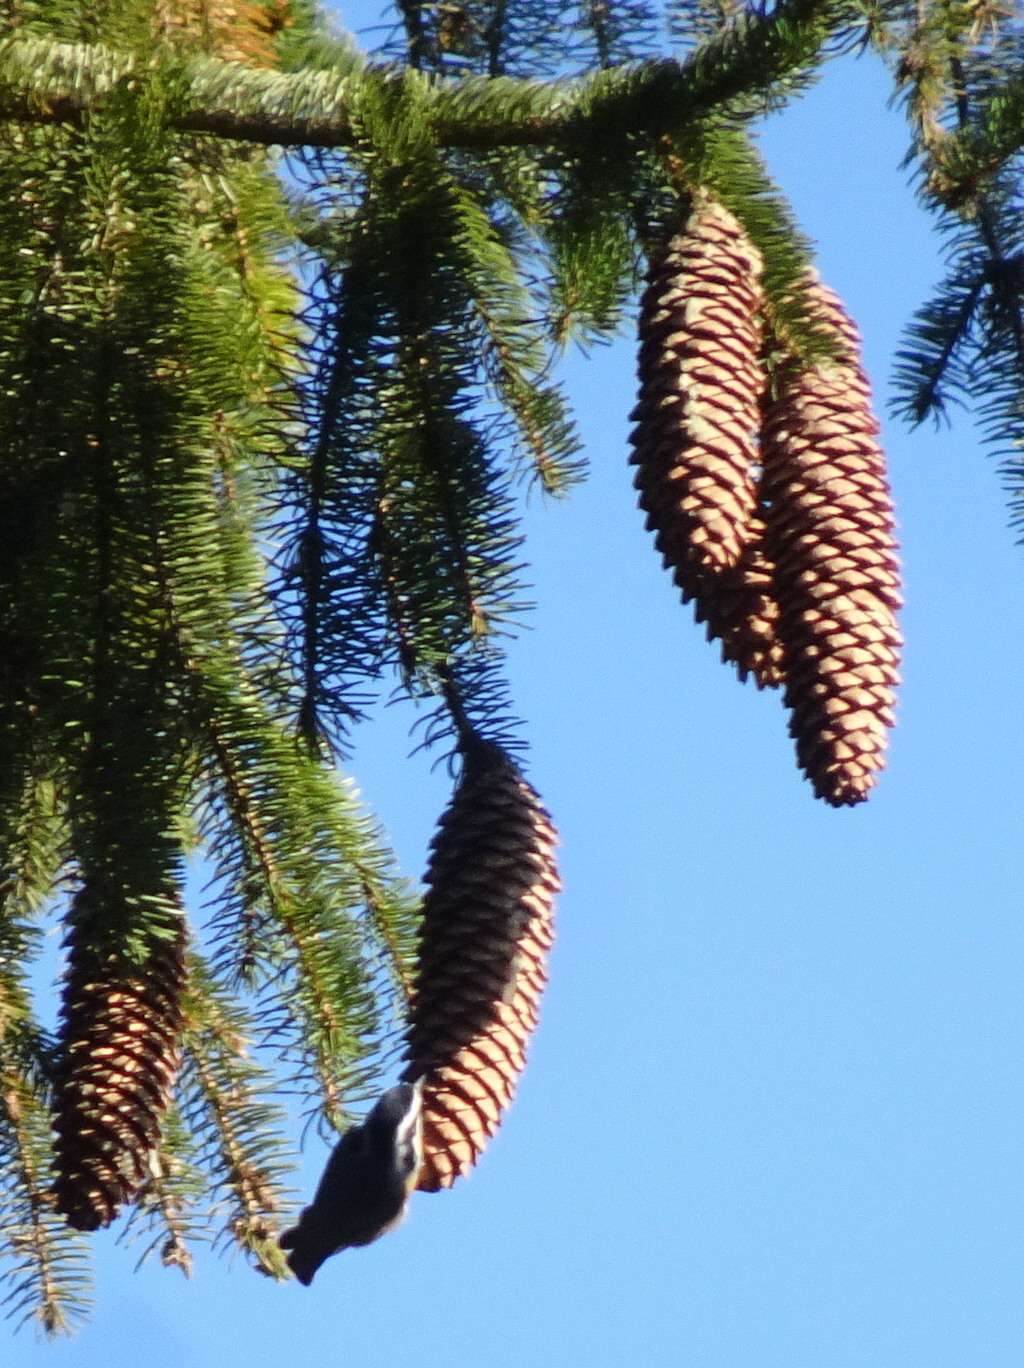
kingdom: Animalia
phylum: Chordata
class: Aves
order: Passeriformes
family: Sittidae
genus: Sitta
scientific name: Sitta canadensis
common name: Red-breasted nuthatch
